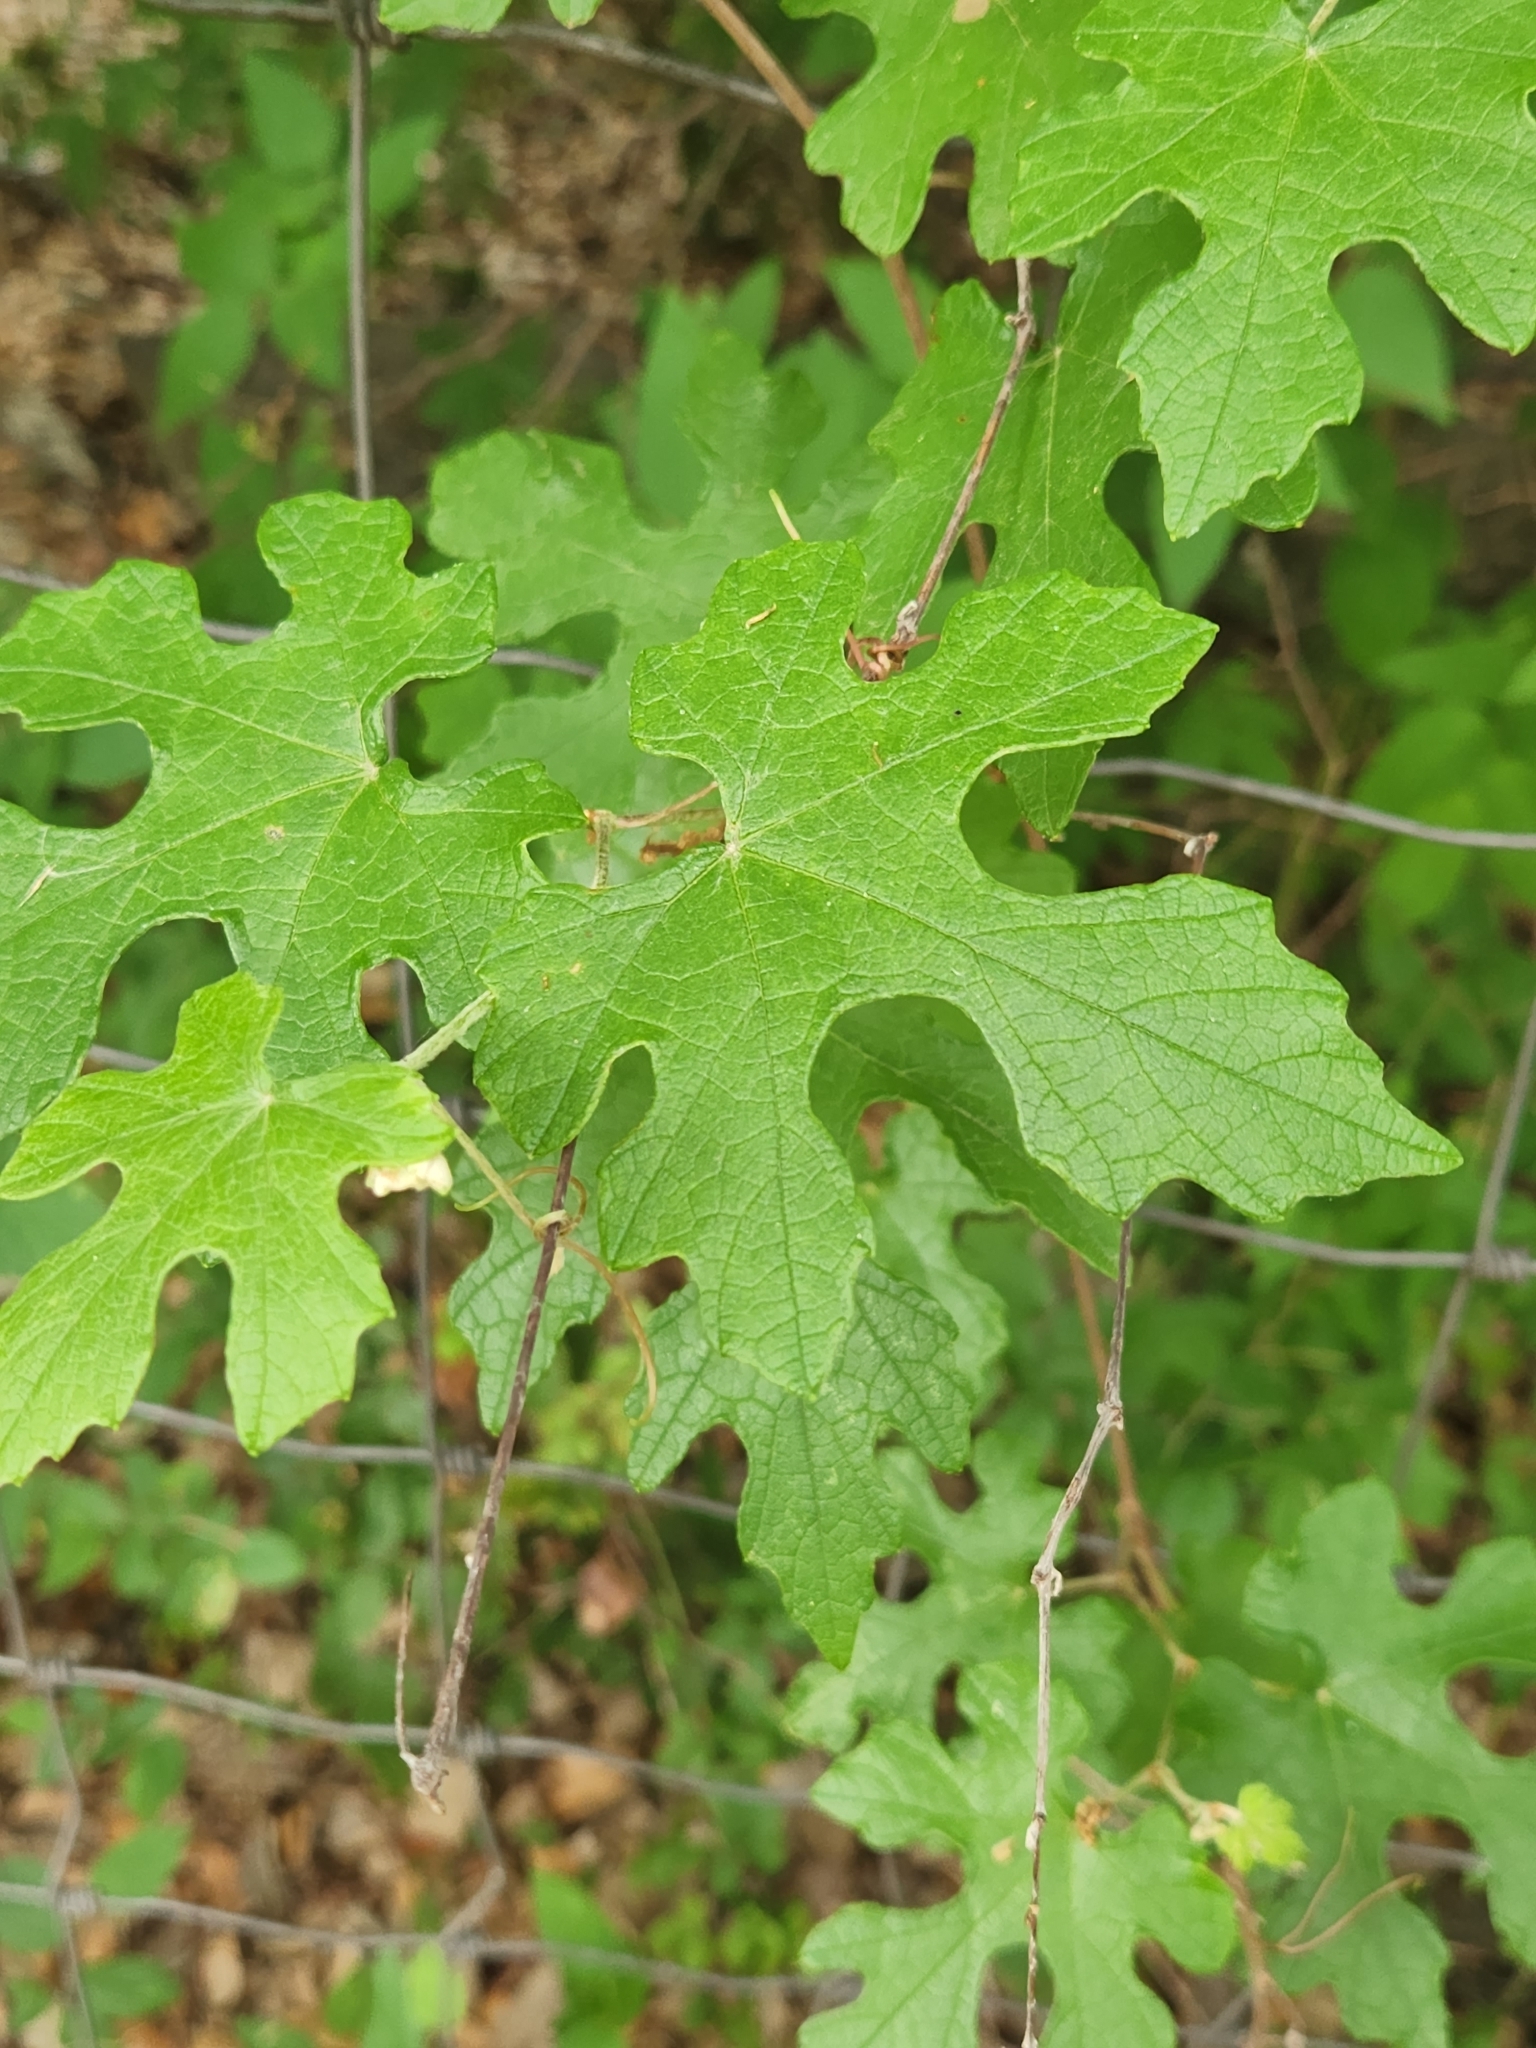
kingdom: Plantae
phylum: Tracheophyta
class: Magnoliopsida
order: Vitales
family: Vitaceae
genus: Vitis
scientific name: Vitis mustangensis
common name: Mustang grape
